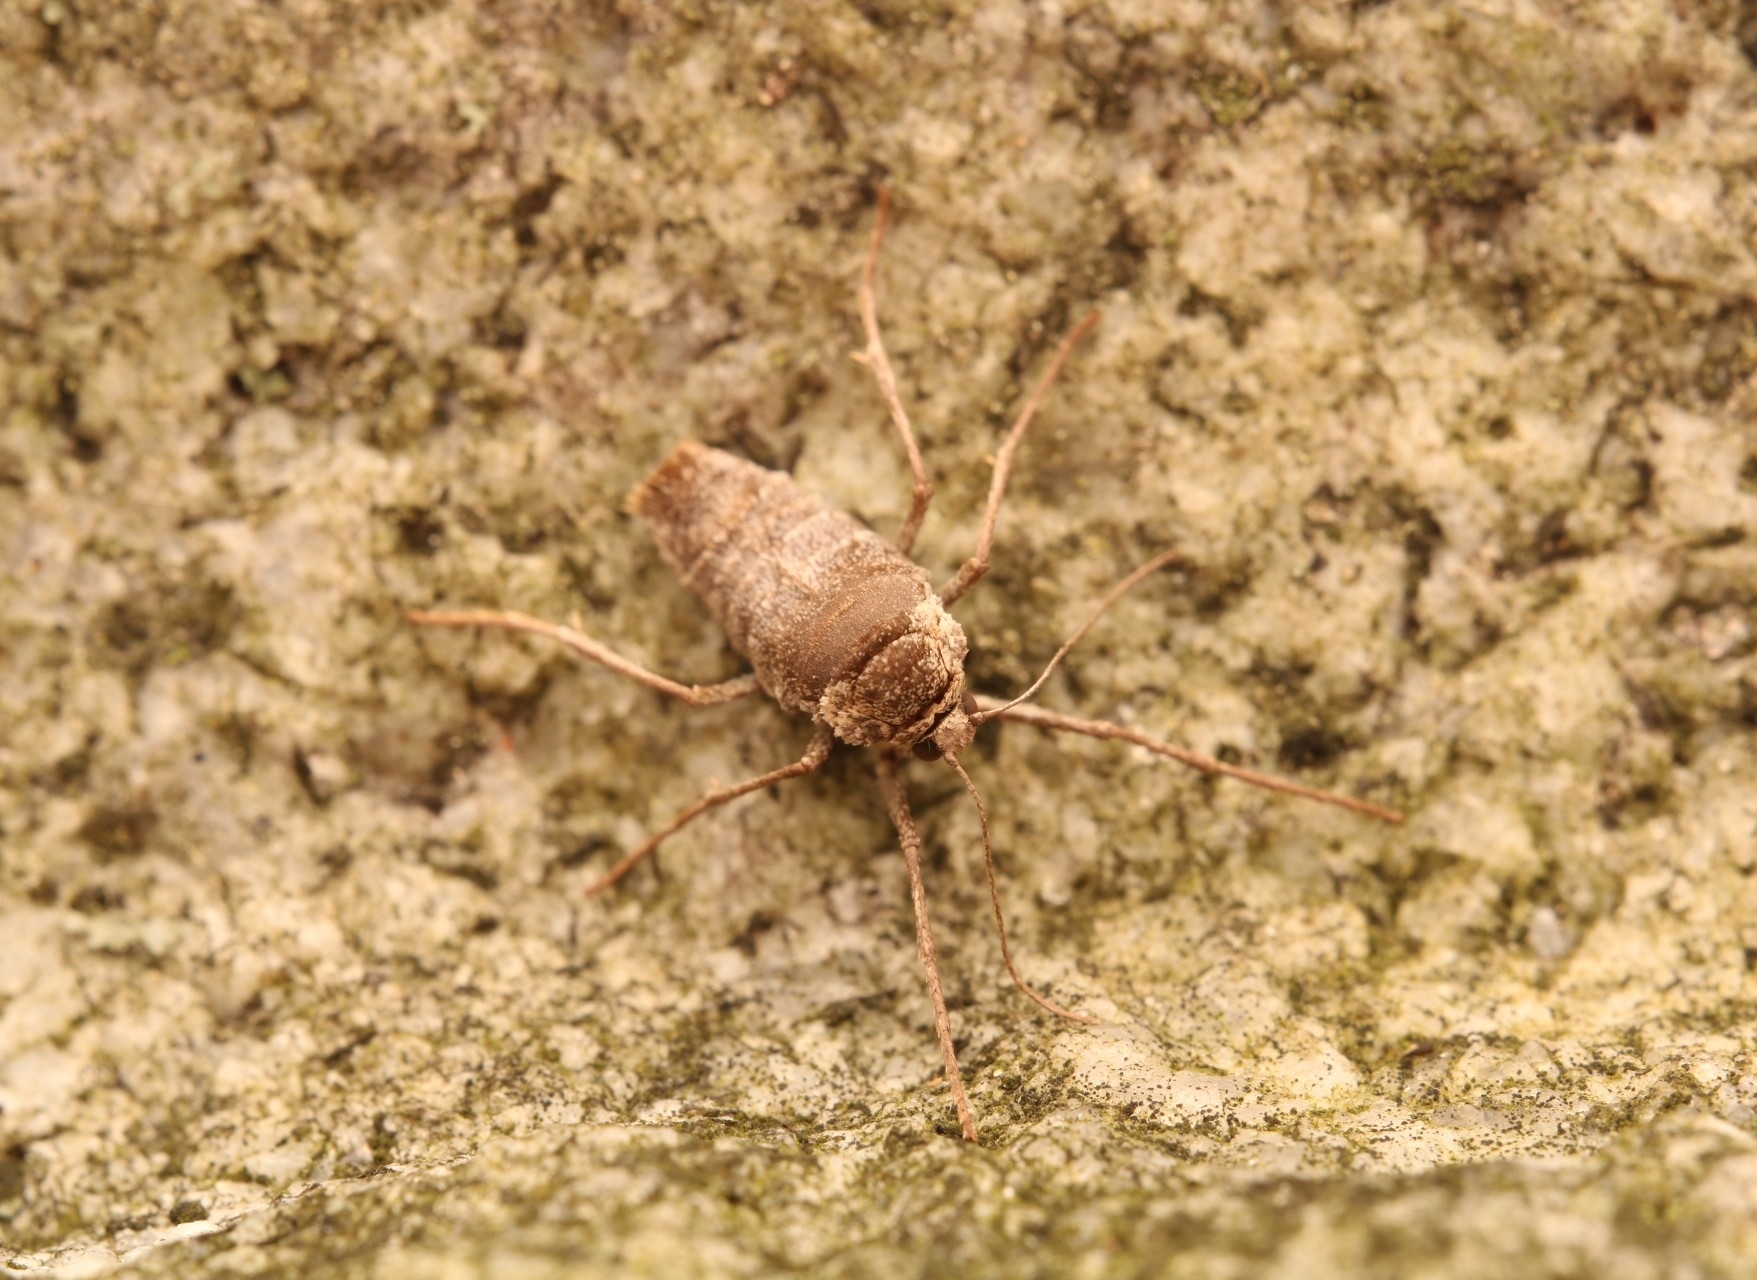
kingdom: Animalia
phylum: Arthropoda
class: Insecta
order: Lepidoptera
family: Geometridae
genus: Alsophila
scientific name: Alsophila pometaria
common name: Fall cankerworm
